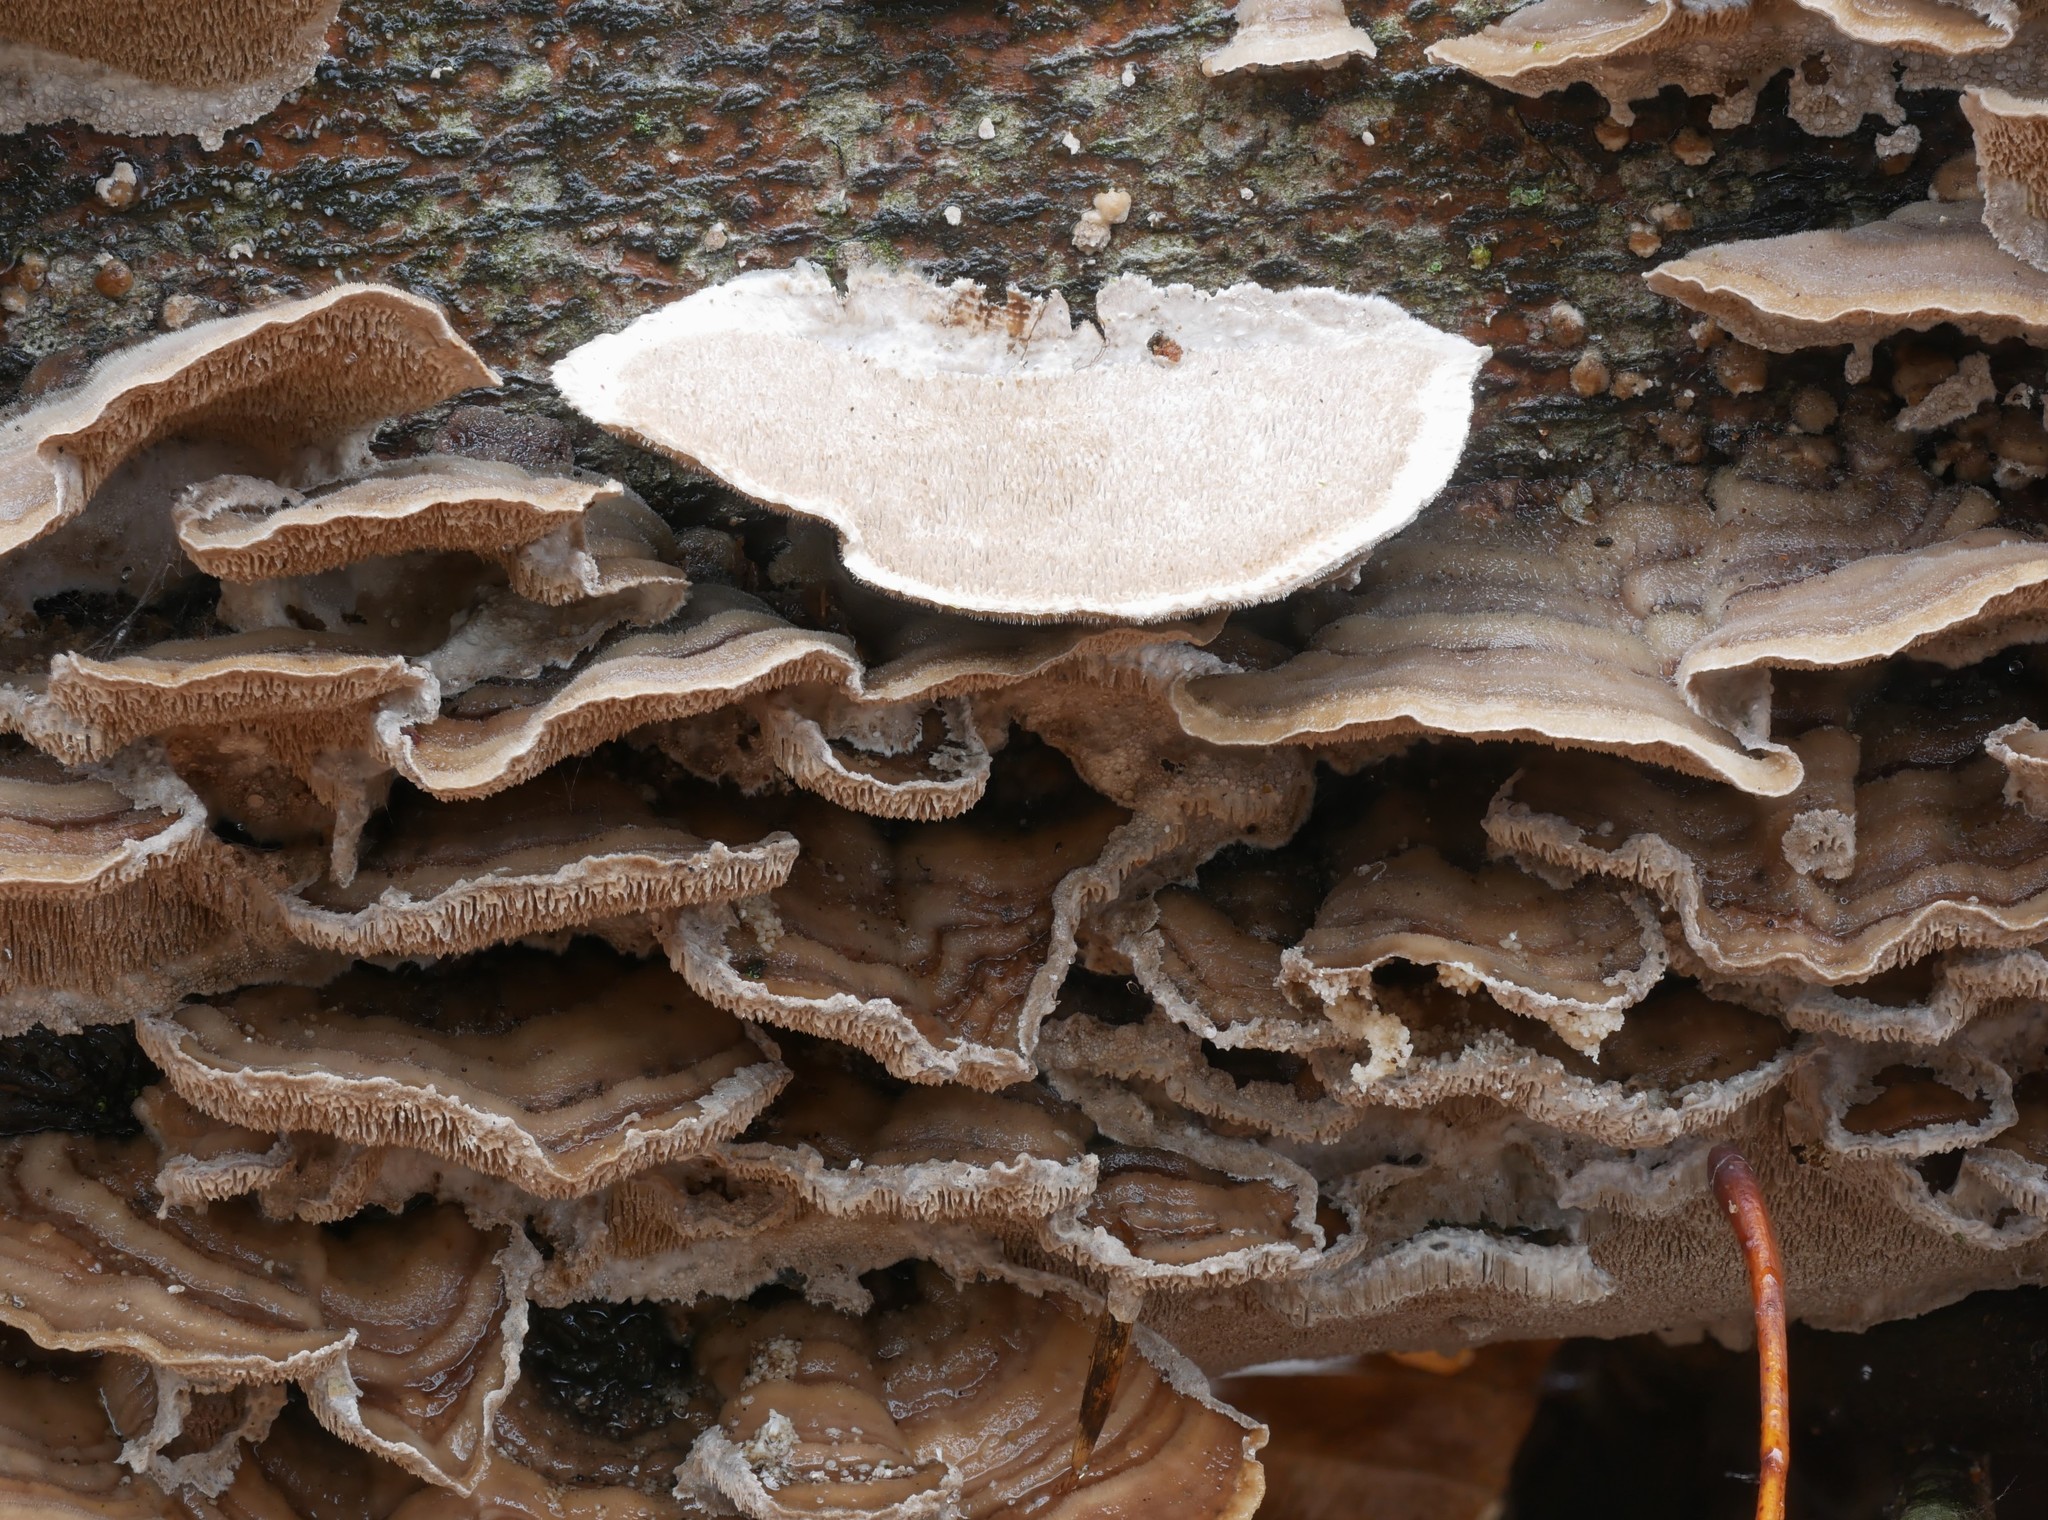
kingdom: Fungi
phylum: Basidiomycota
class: Agaricomycetes
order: Polyporales
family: Cerrenaceae
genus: Cerrena
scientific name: Cerrena unicolor
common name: Mossy maze polypore
